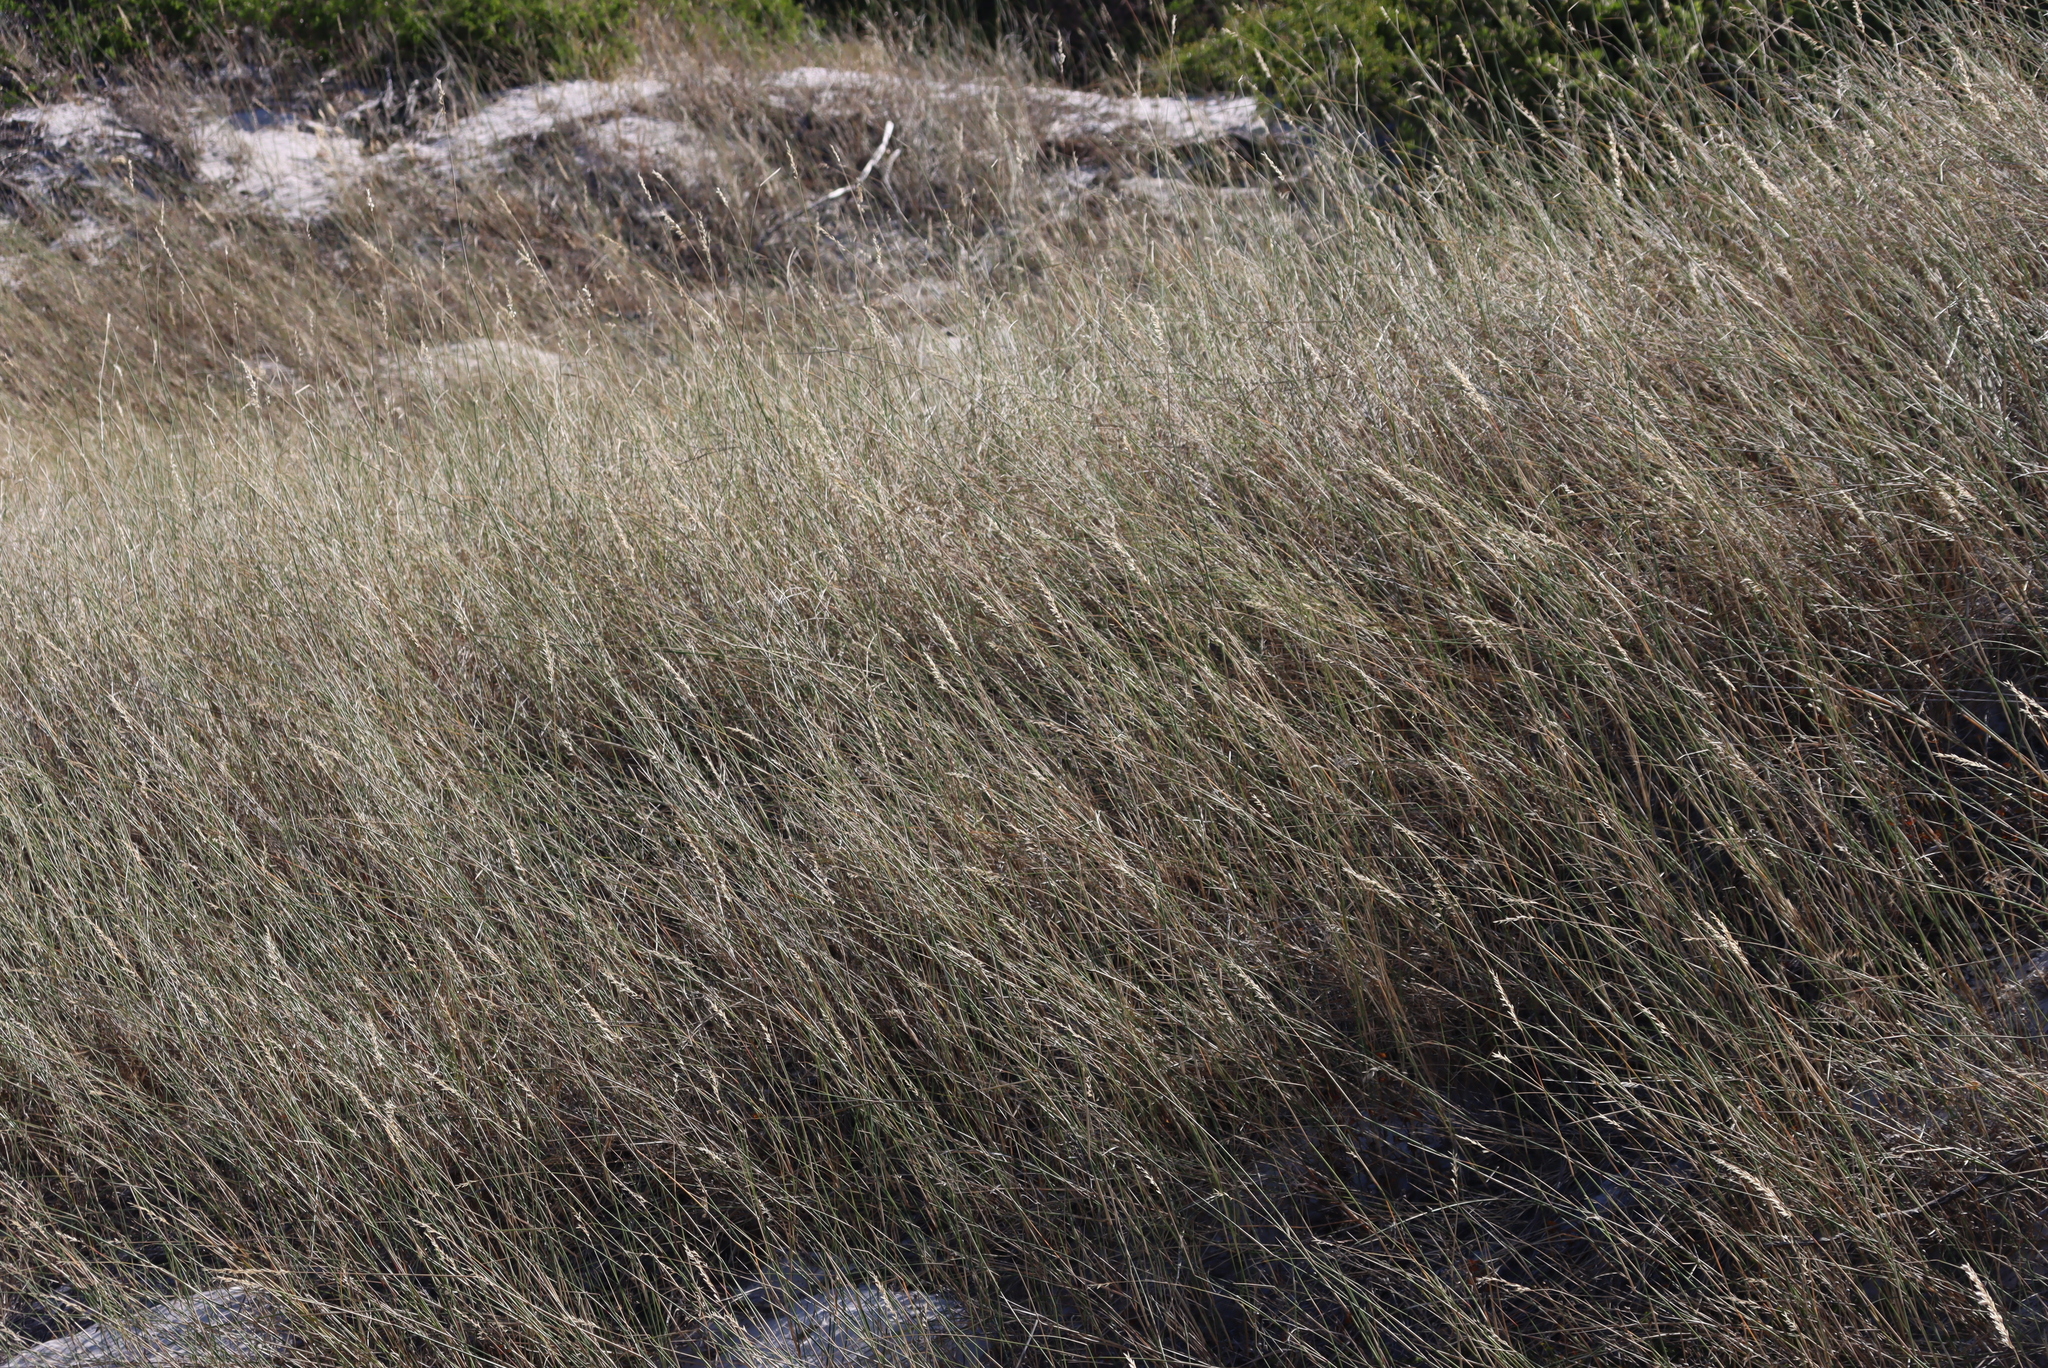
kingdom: Plantae
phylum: Tracheophyta
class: Liliopsida
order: Poales
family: Poaceae
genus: Ehrharta
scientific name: Ehrharta villosa
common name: Pyp grass
